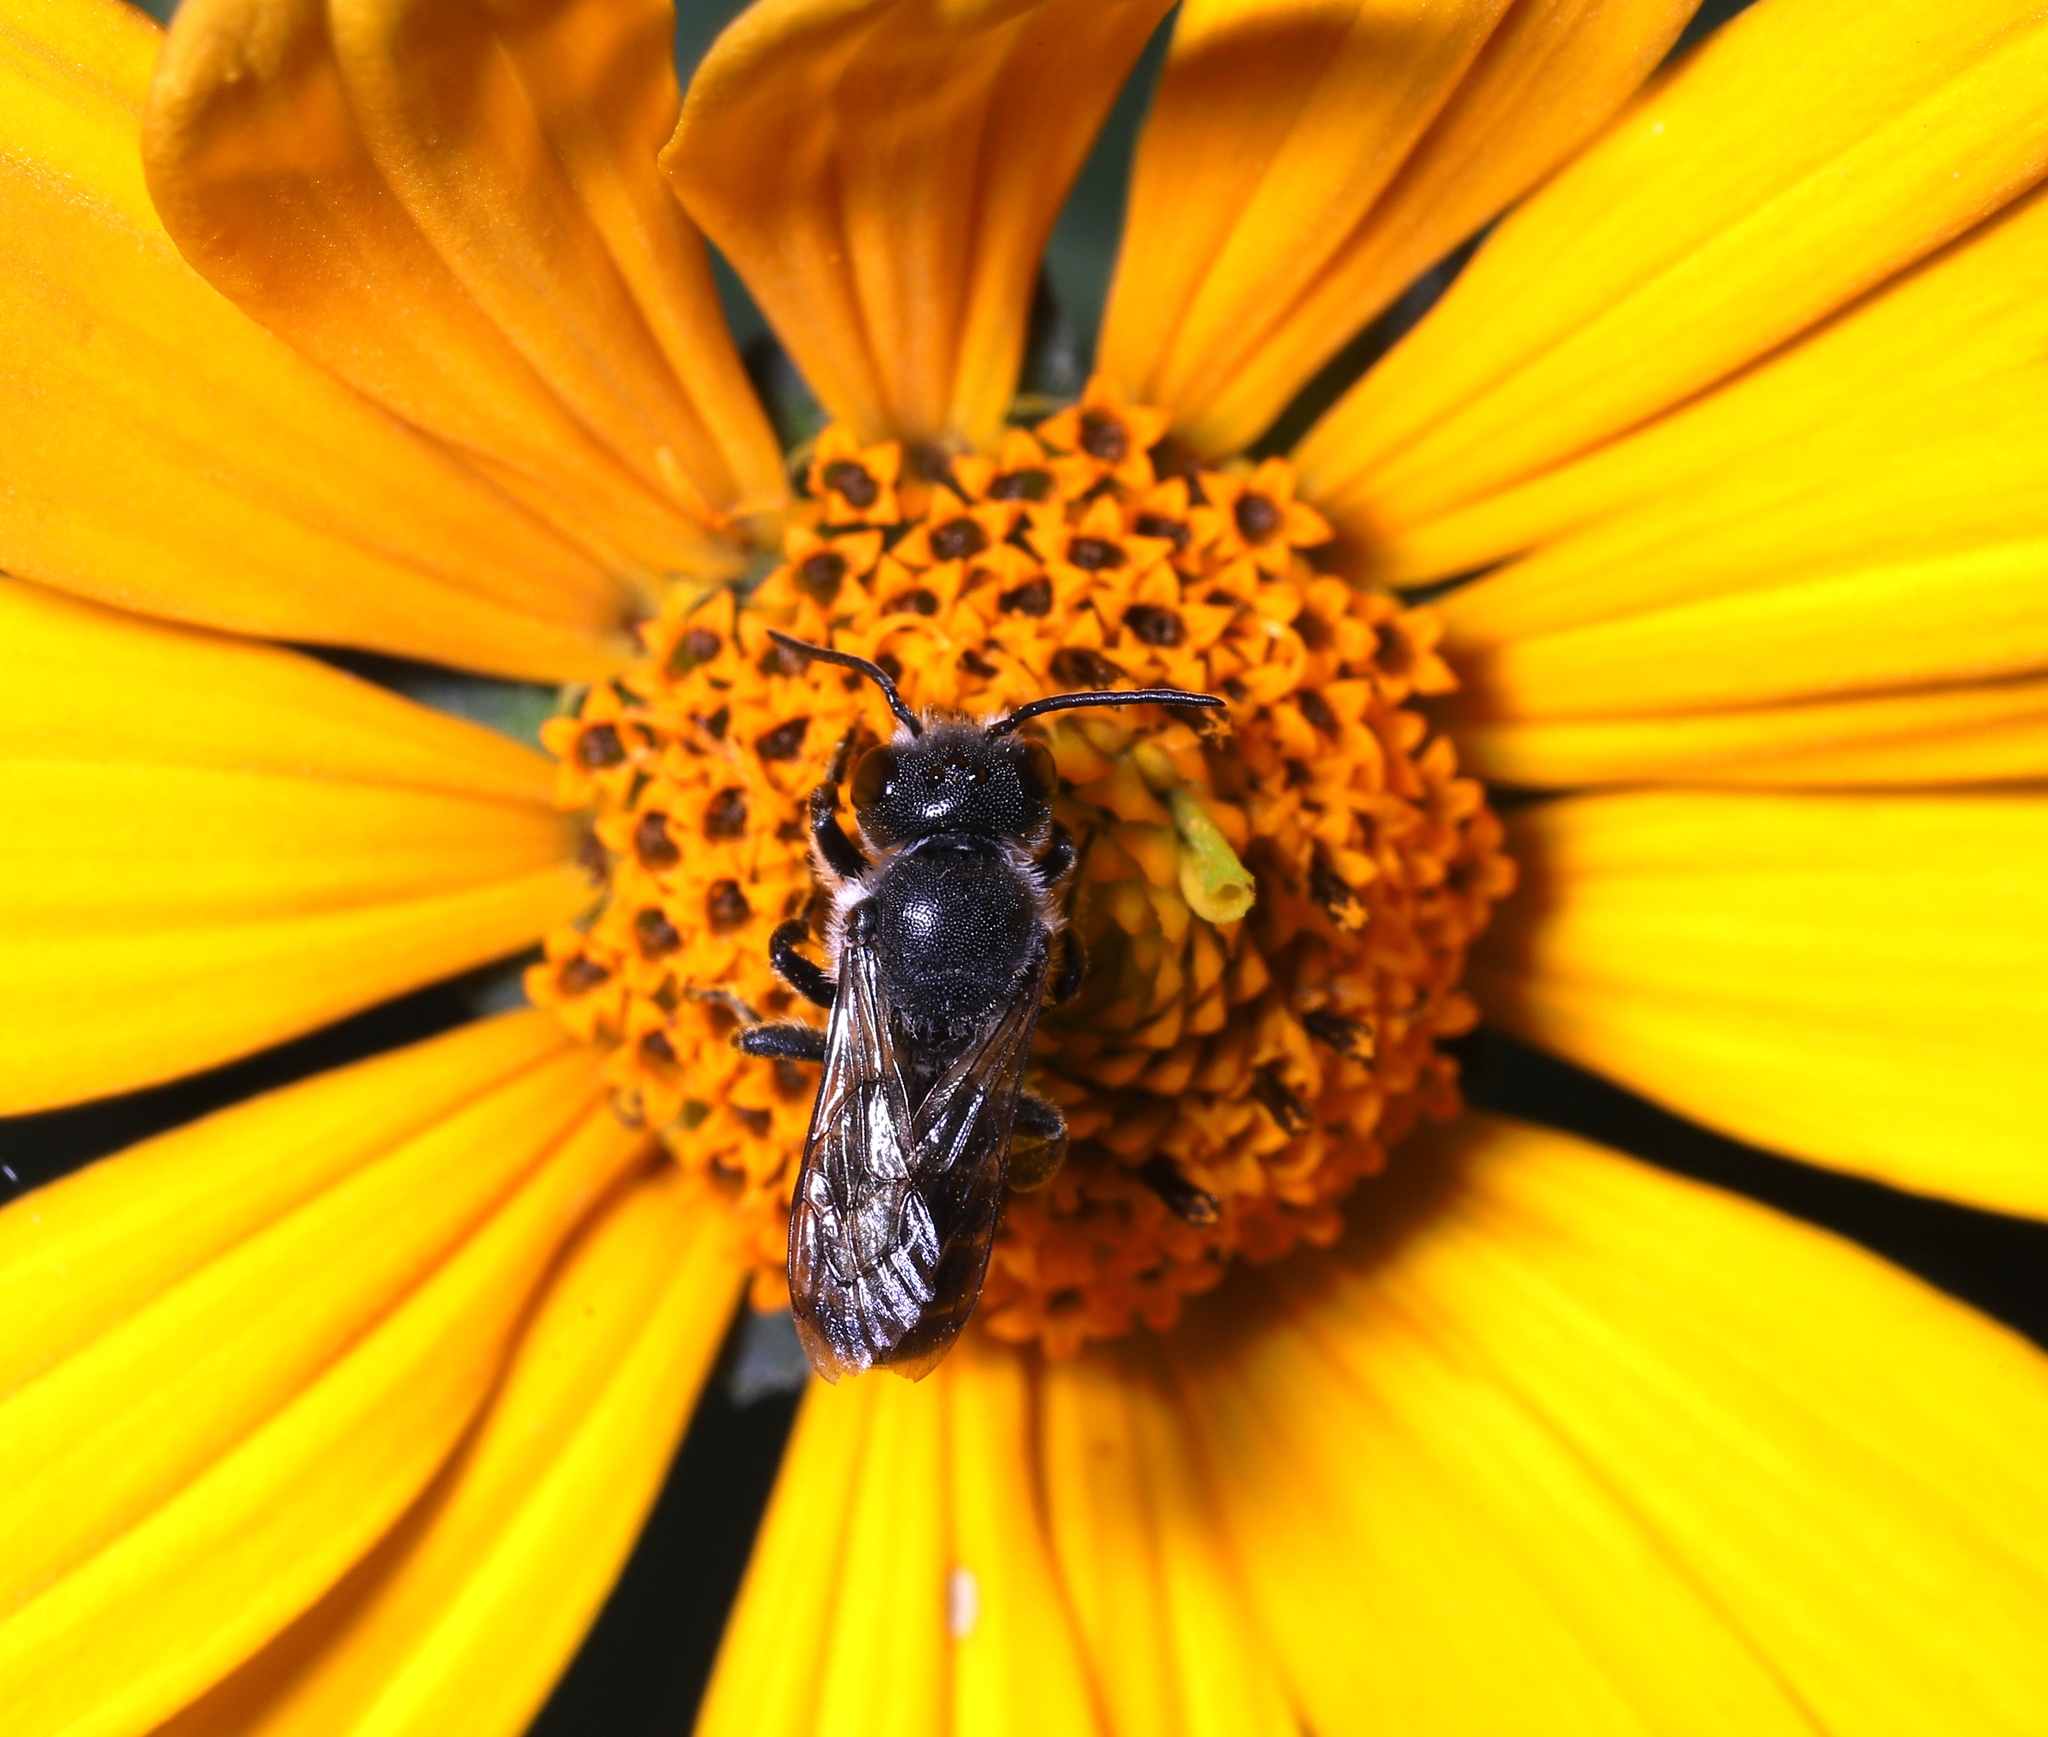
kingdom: Animalia
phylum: Arthropoda
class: Insecta
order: Hymenoptera
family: Megachilidae
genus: Megachile
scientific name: Megachile campanulae
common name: Bellflower resin bee
